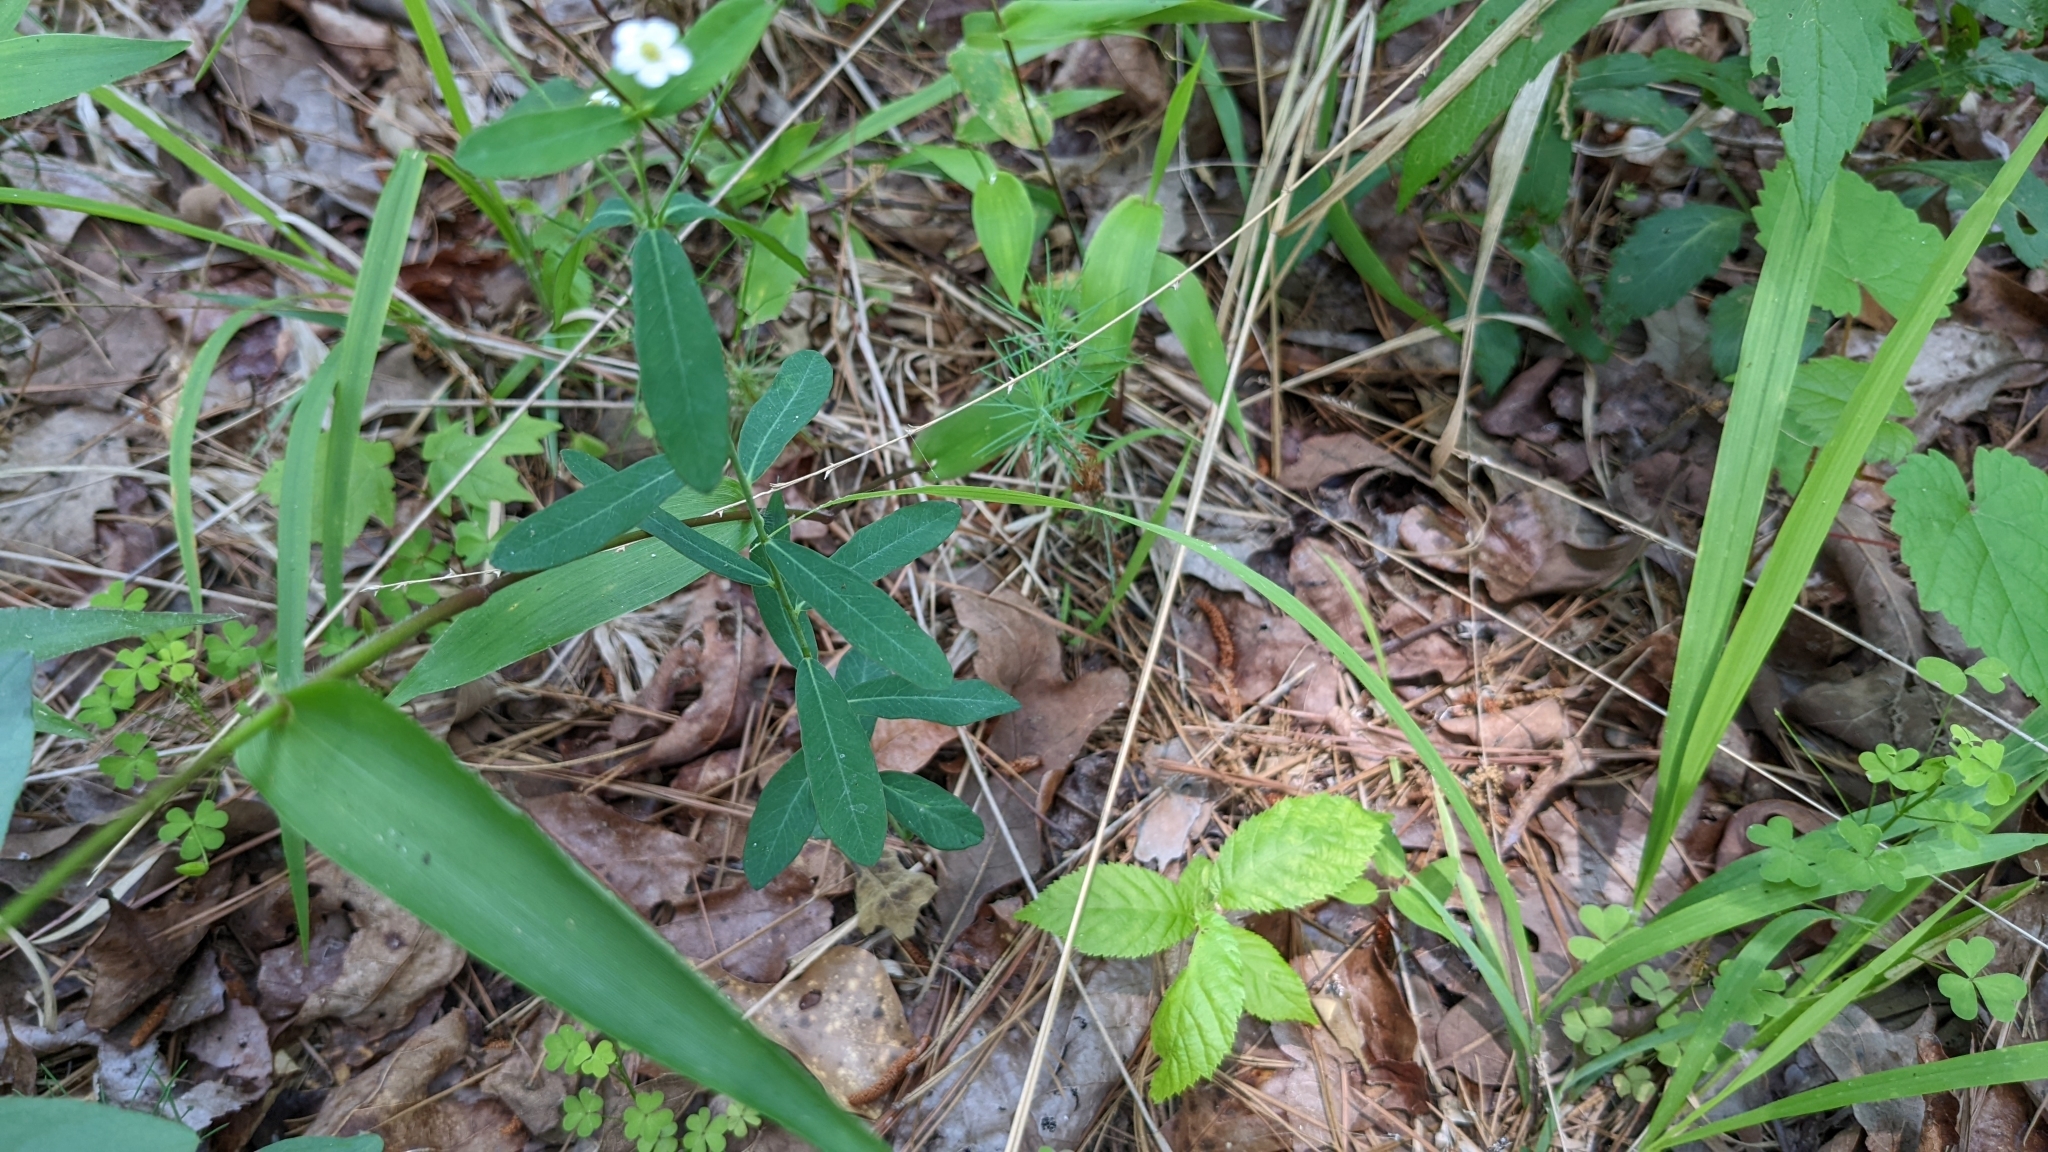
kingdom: Plantae
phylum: Tracheophyta
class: Magnoliopsida
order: Malpighiales
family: Euphorbiaceae
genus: Euphorbia
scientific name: Euphorbia corollata
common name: Flowering spurge
